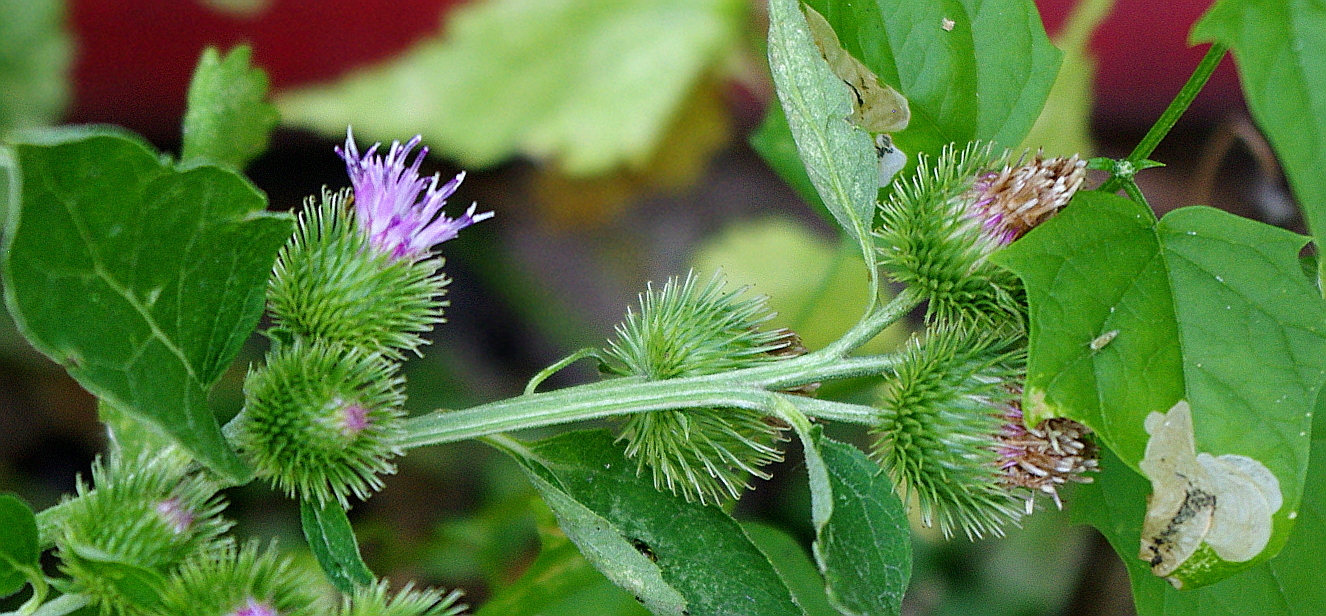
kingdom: Plantae
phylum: Tracheophyta
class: Magnoliopsida
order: Asterales
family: Asteraceae
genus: Arctium
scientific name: Arctium minus
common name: Lesser burdock
